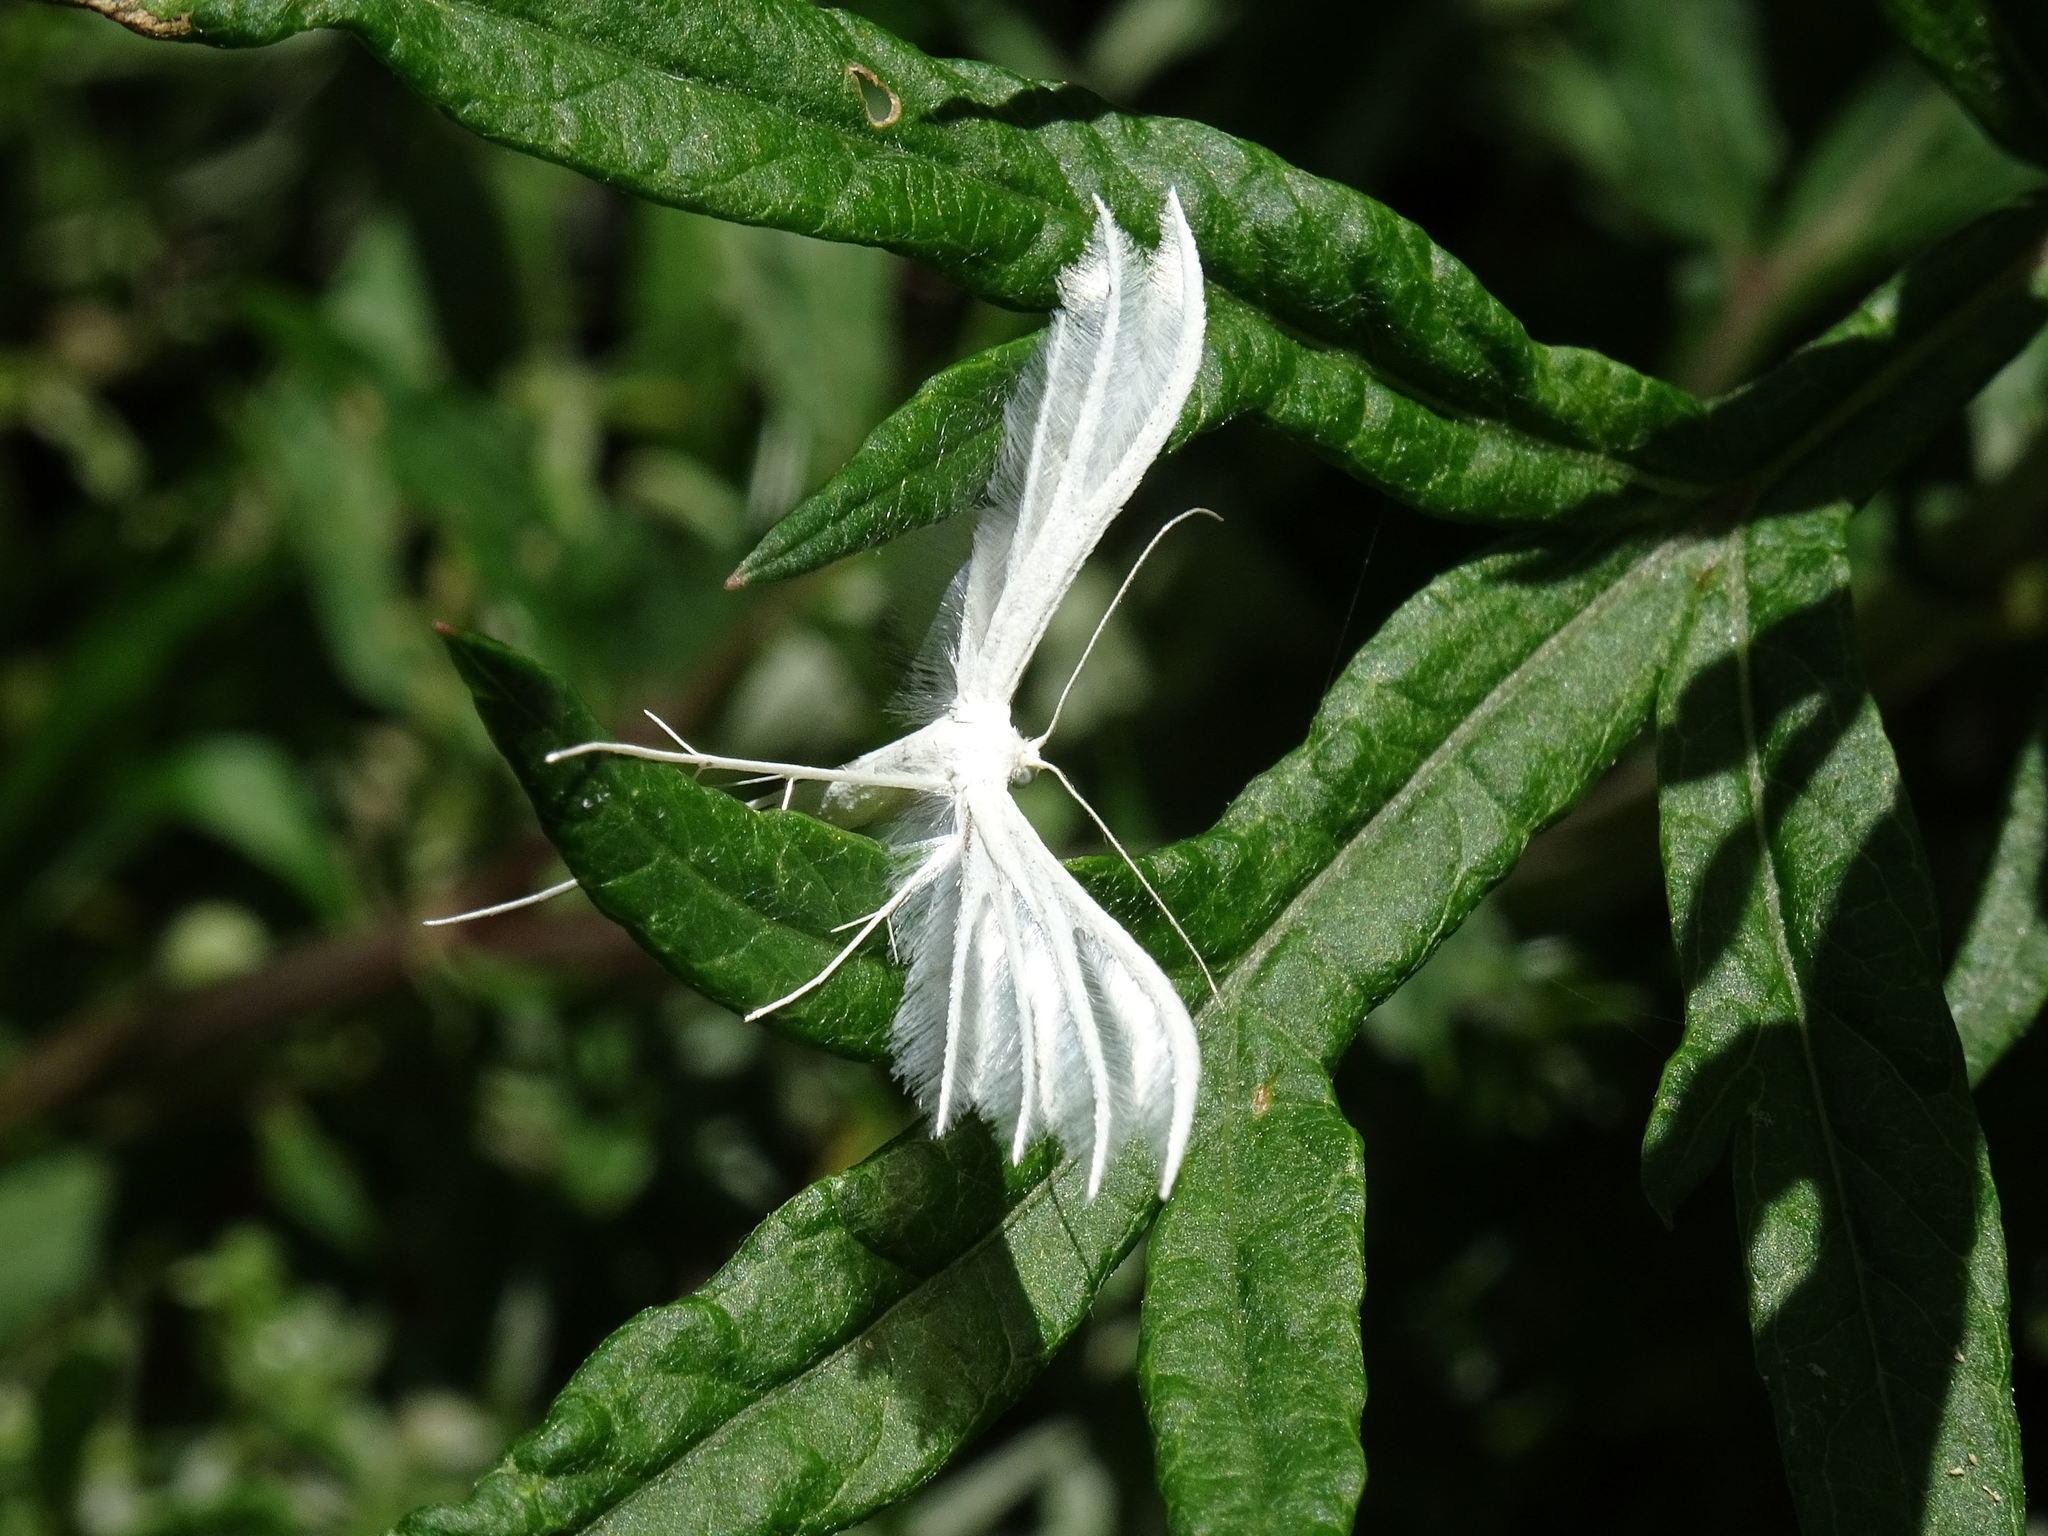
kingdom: Animalia
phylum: Arthropoda
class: Insecta
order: Lepidoptera
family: Pterophoridae
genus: Pterophorus
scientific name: Pterophorus pentadactyla
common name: White plume moth
